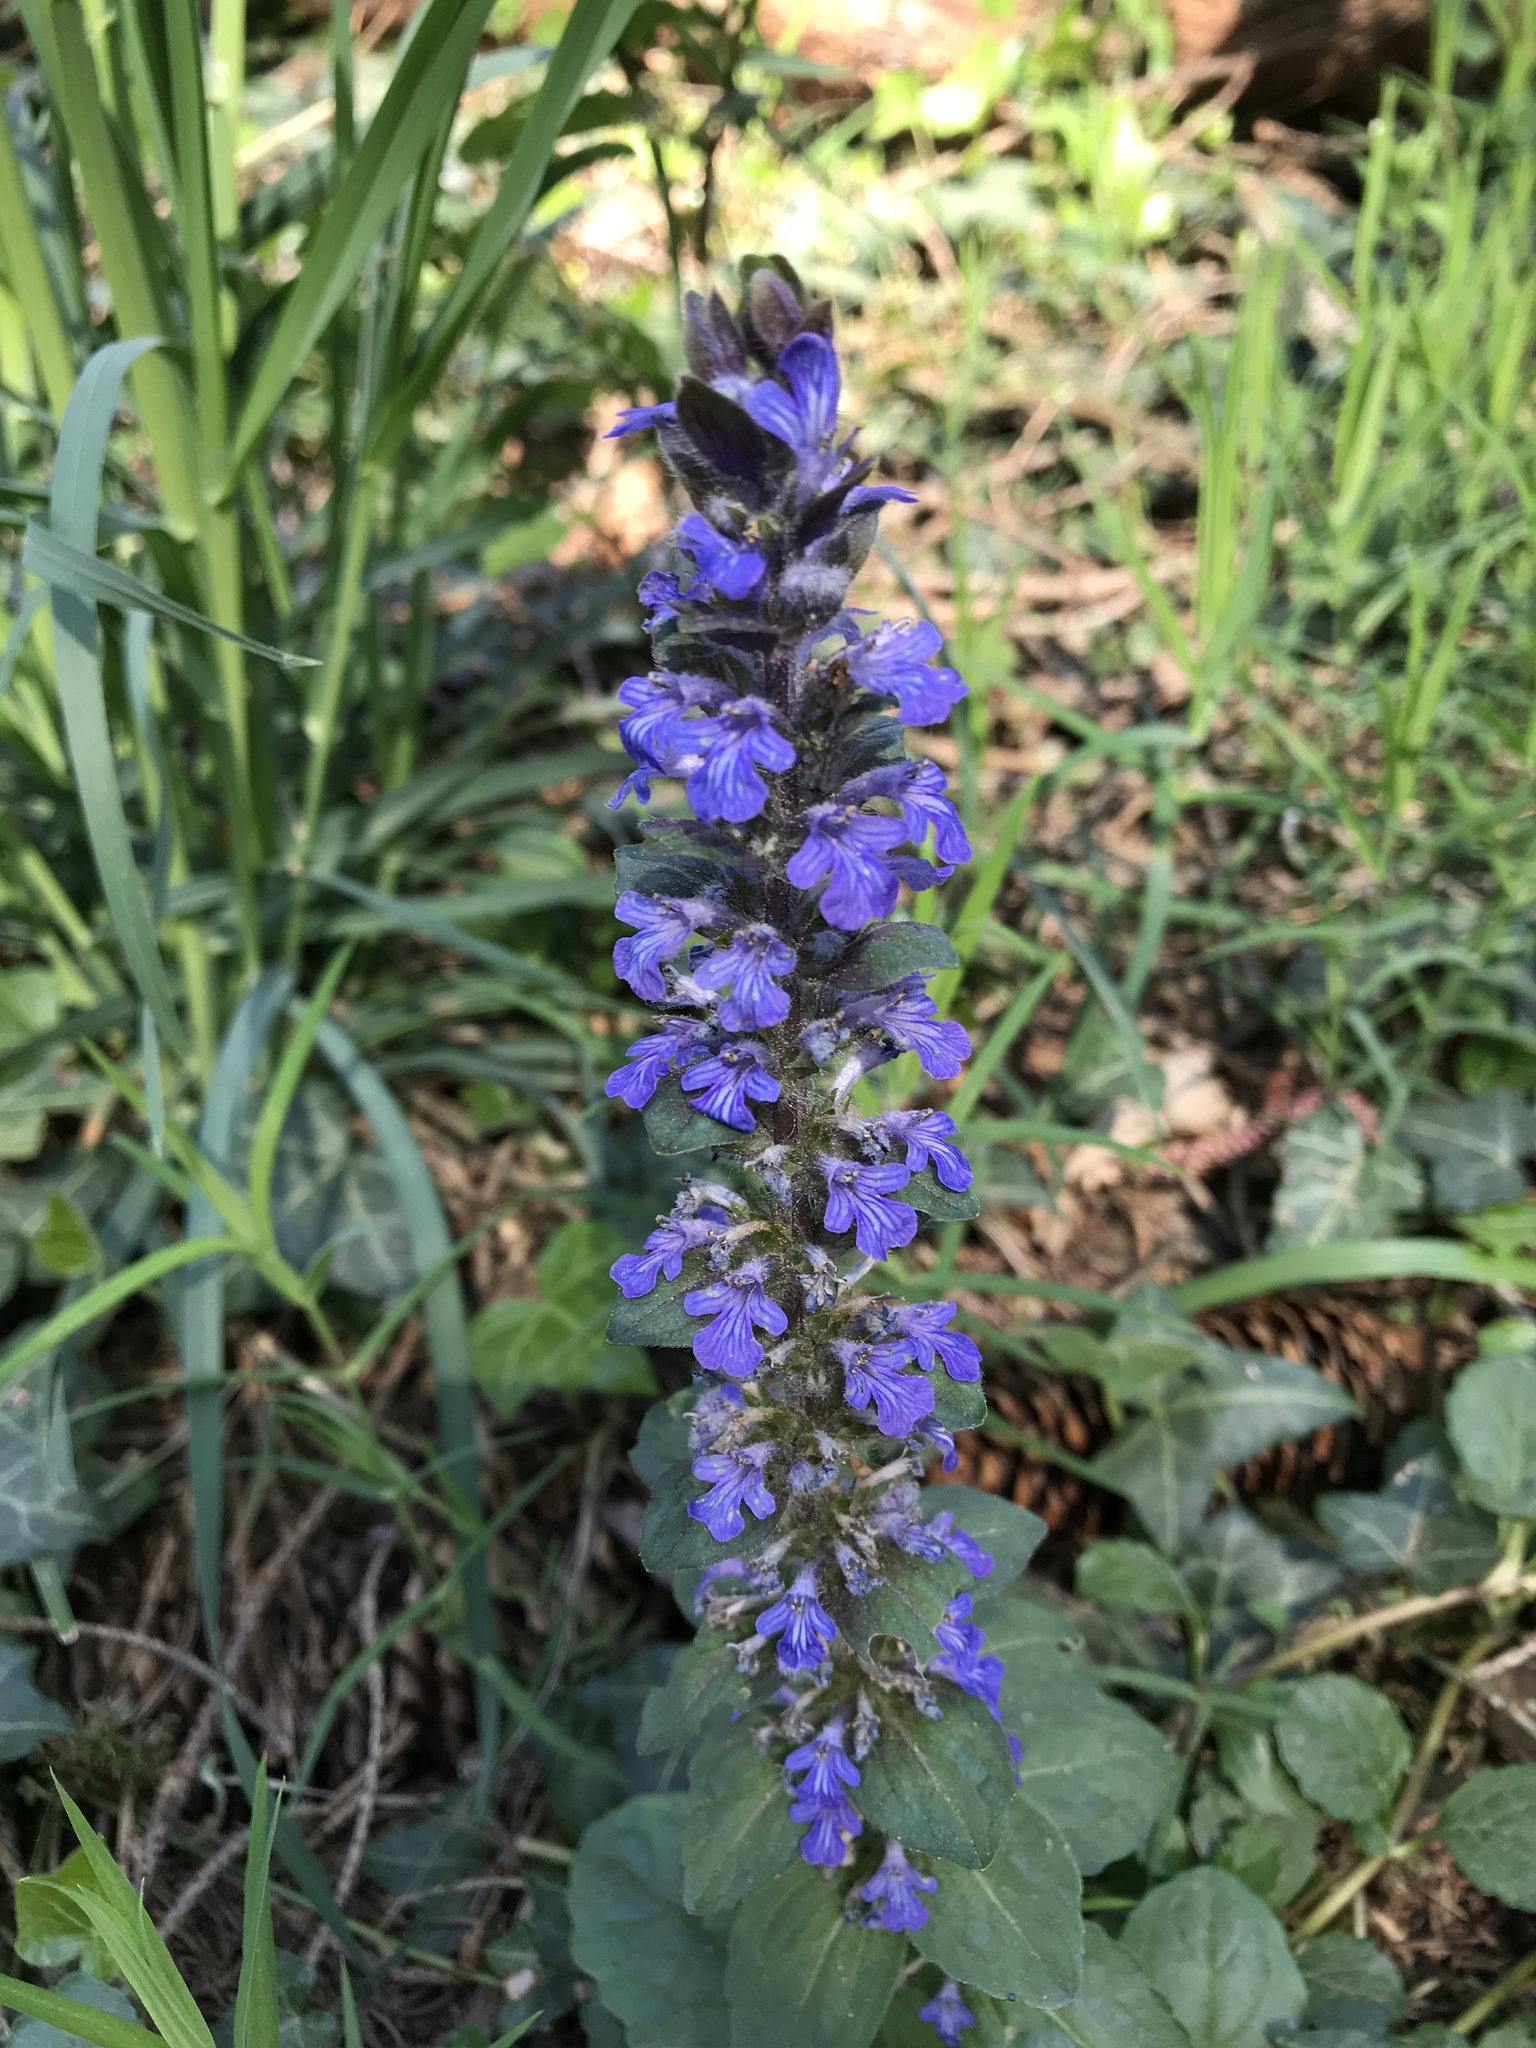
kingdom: Plantae
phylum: Tracheophyta
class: Magnoliopsida
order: Lamiales
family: Lamiaceae
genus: Ajuga
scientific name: Ajuga reptans
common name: Bugle
